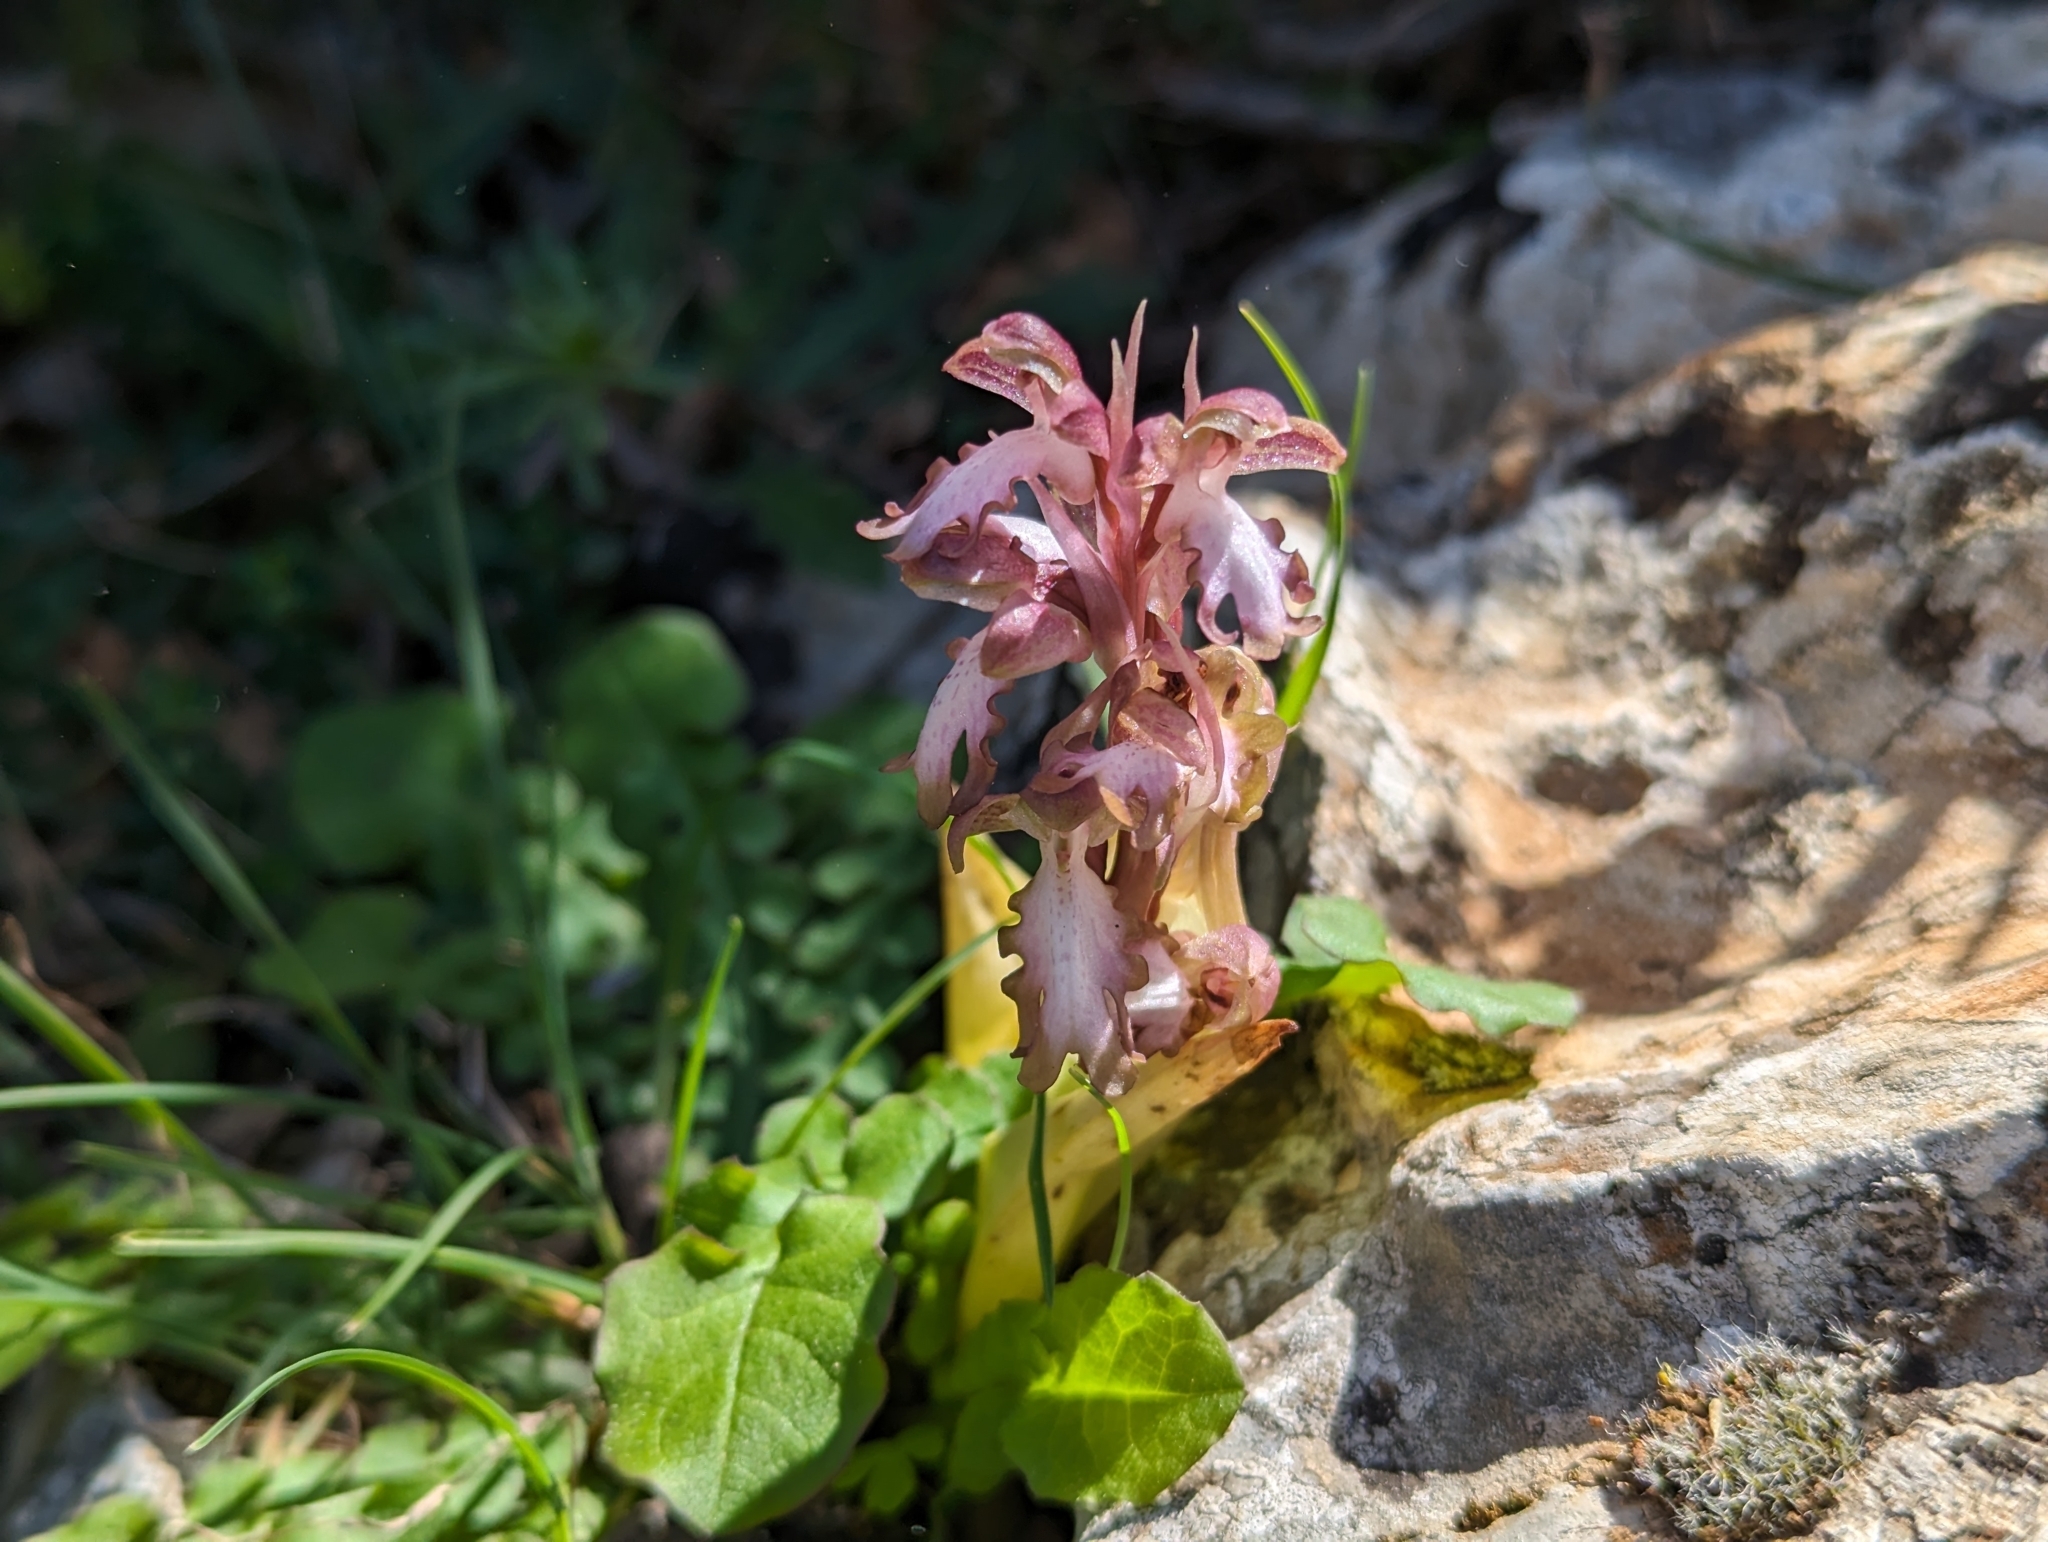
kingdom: Plantae
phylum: Tracheophyta
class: Liliopsida
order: Asparagales
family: Orchidaceae
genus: Himantoglossum
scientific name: Himantoglossum robertianum
